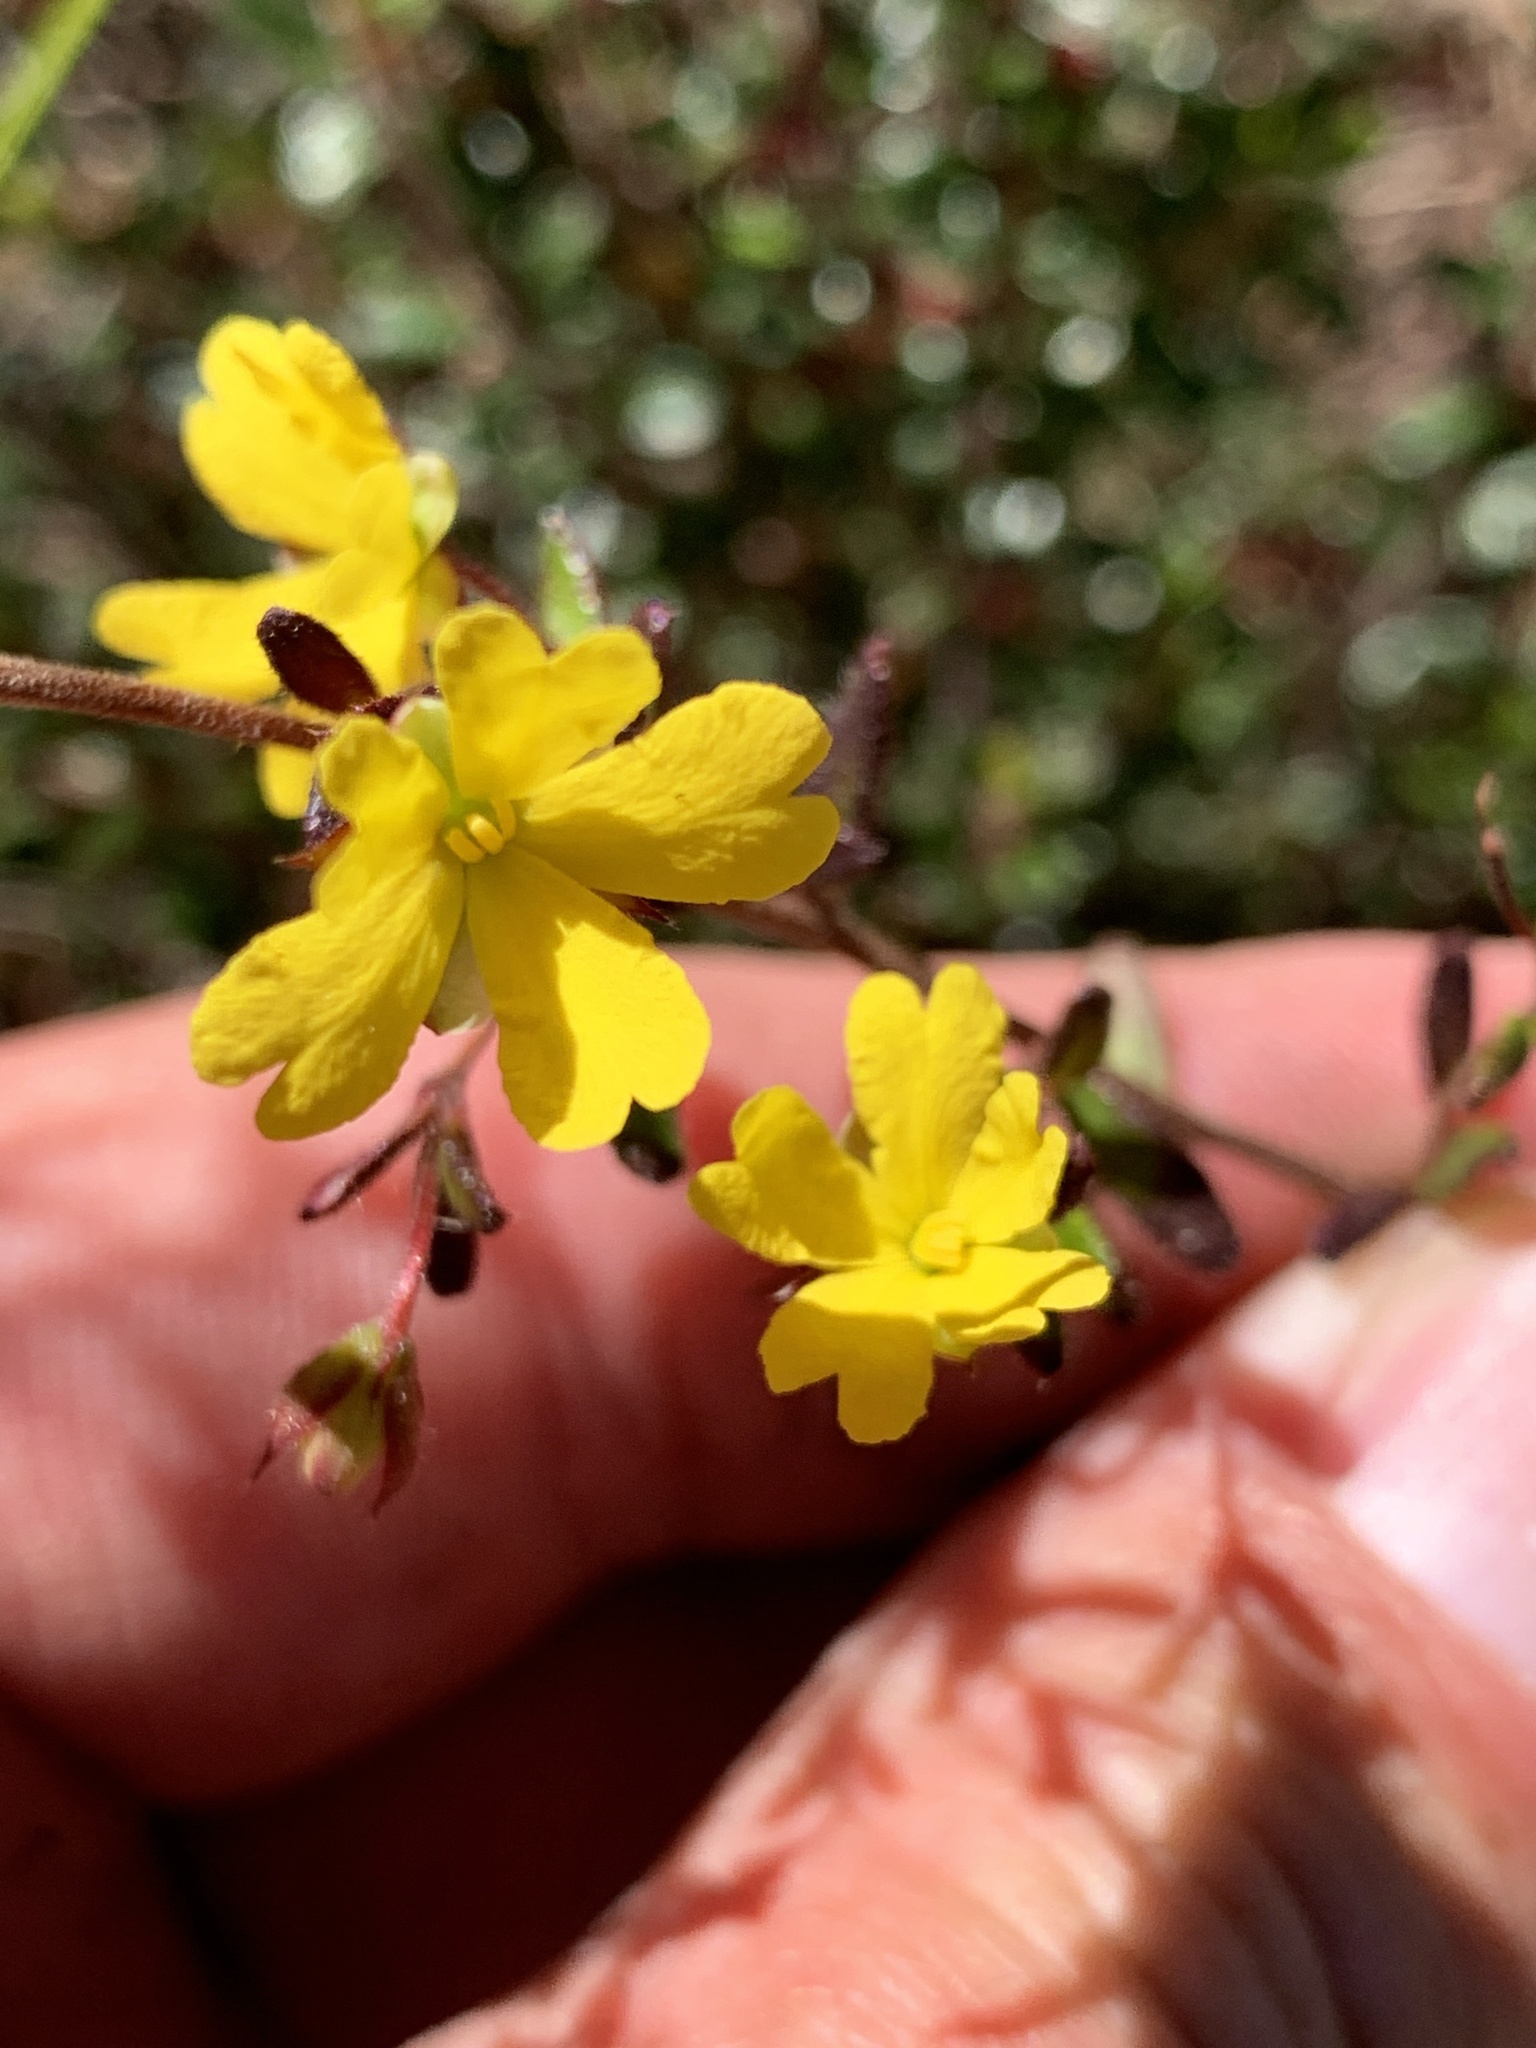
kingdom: Plantae
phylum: Tracheophyta
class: Magnoliopsida
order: Dilleniales
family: Dilleniaceae
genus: Hibbertia
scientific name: Hibbertia empetrifolia
